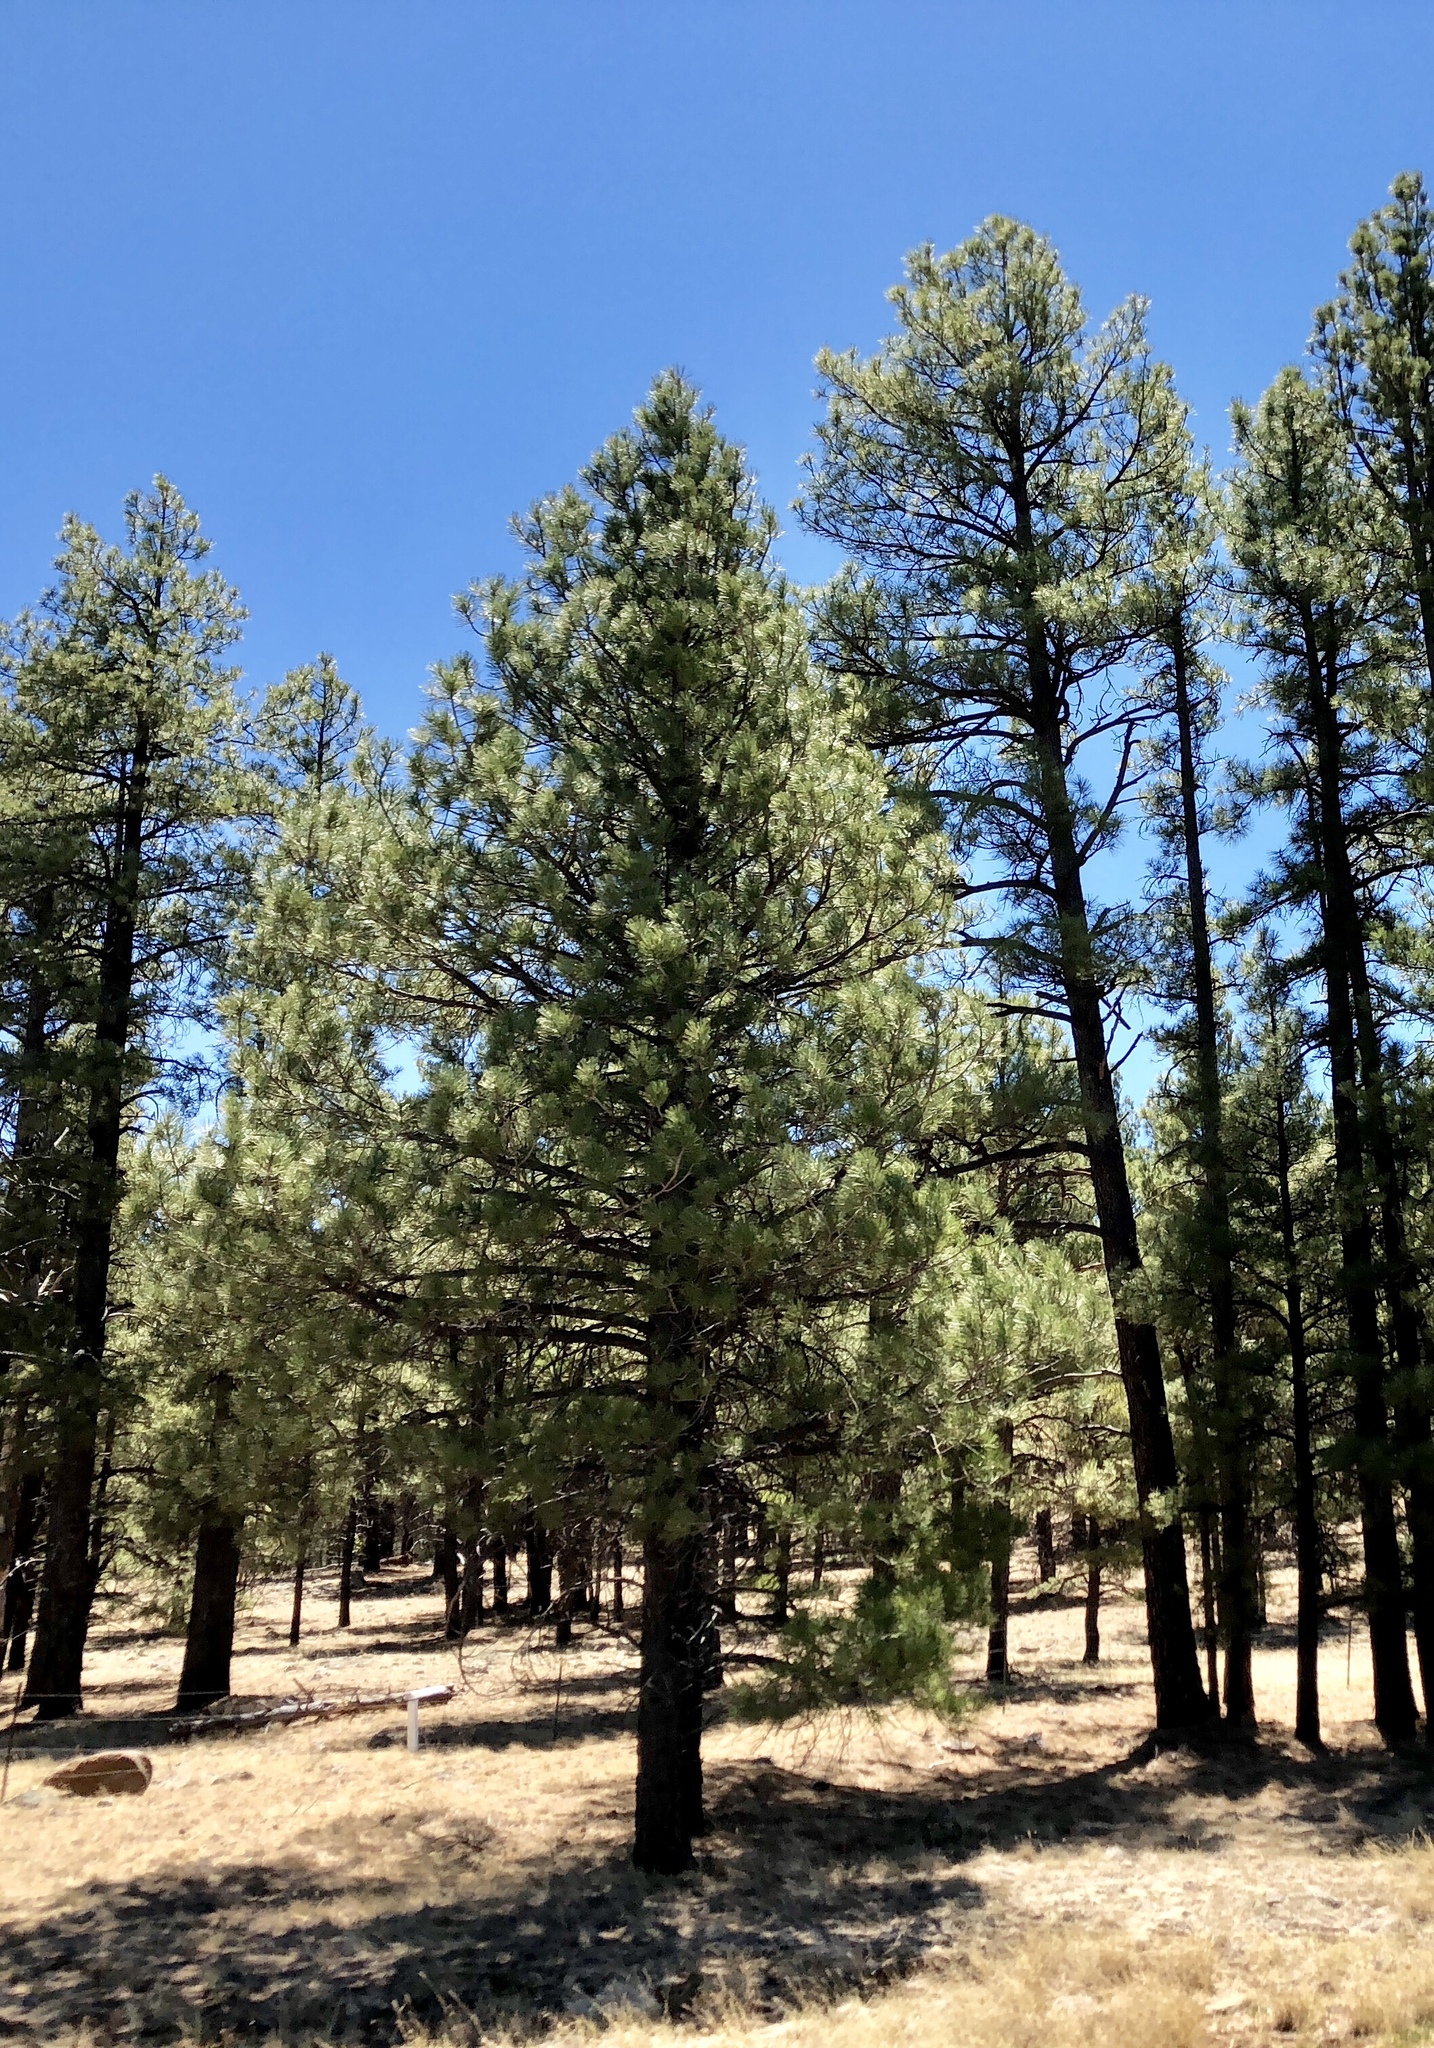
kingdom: Plantae
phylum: Tracheophyta
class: Pinopsida
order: Pinales
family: Pinaceae
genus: Pinus
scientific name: Pinus ponderosa
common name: Western yellow-pine
